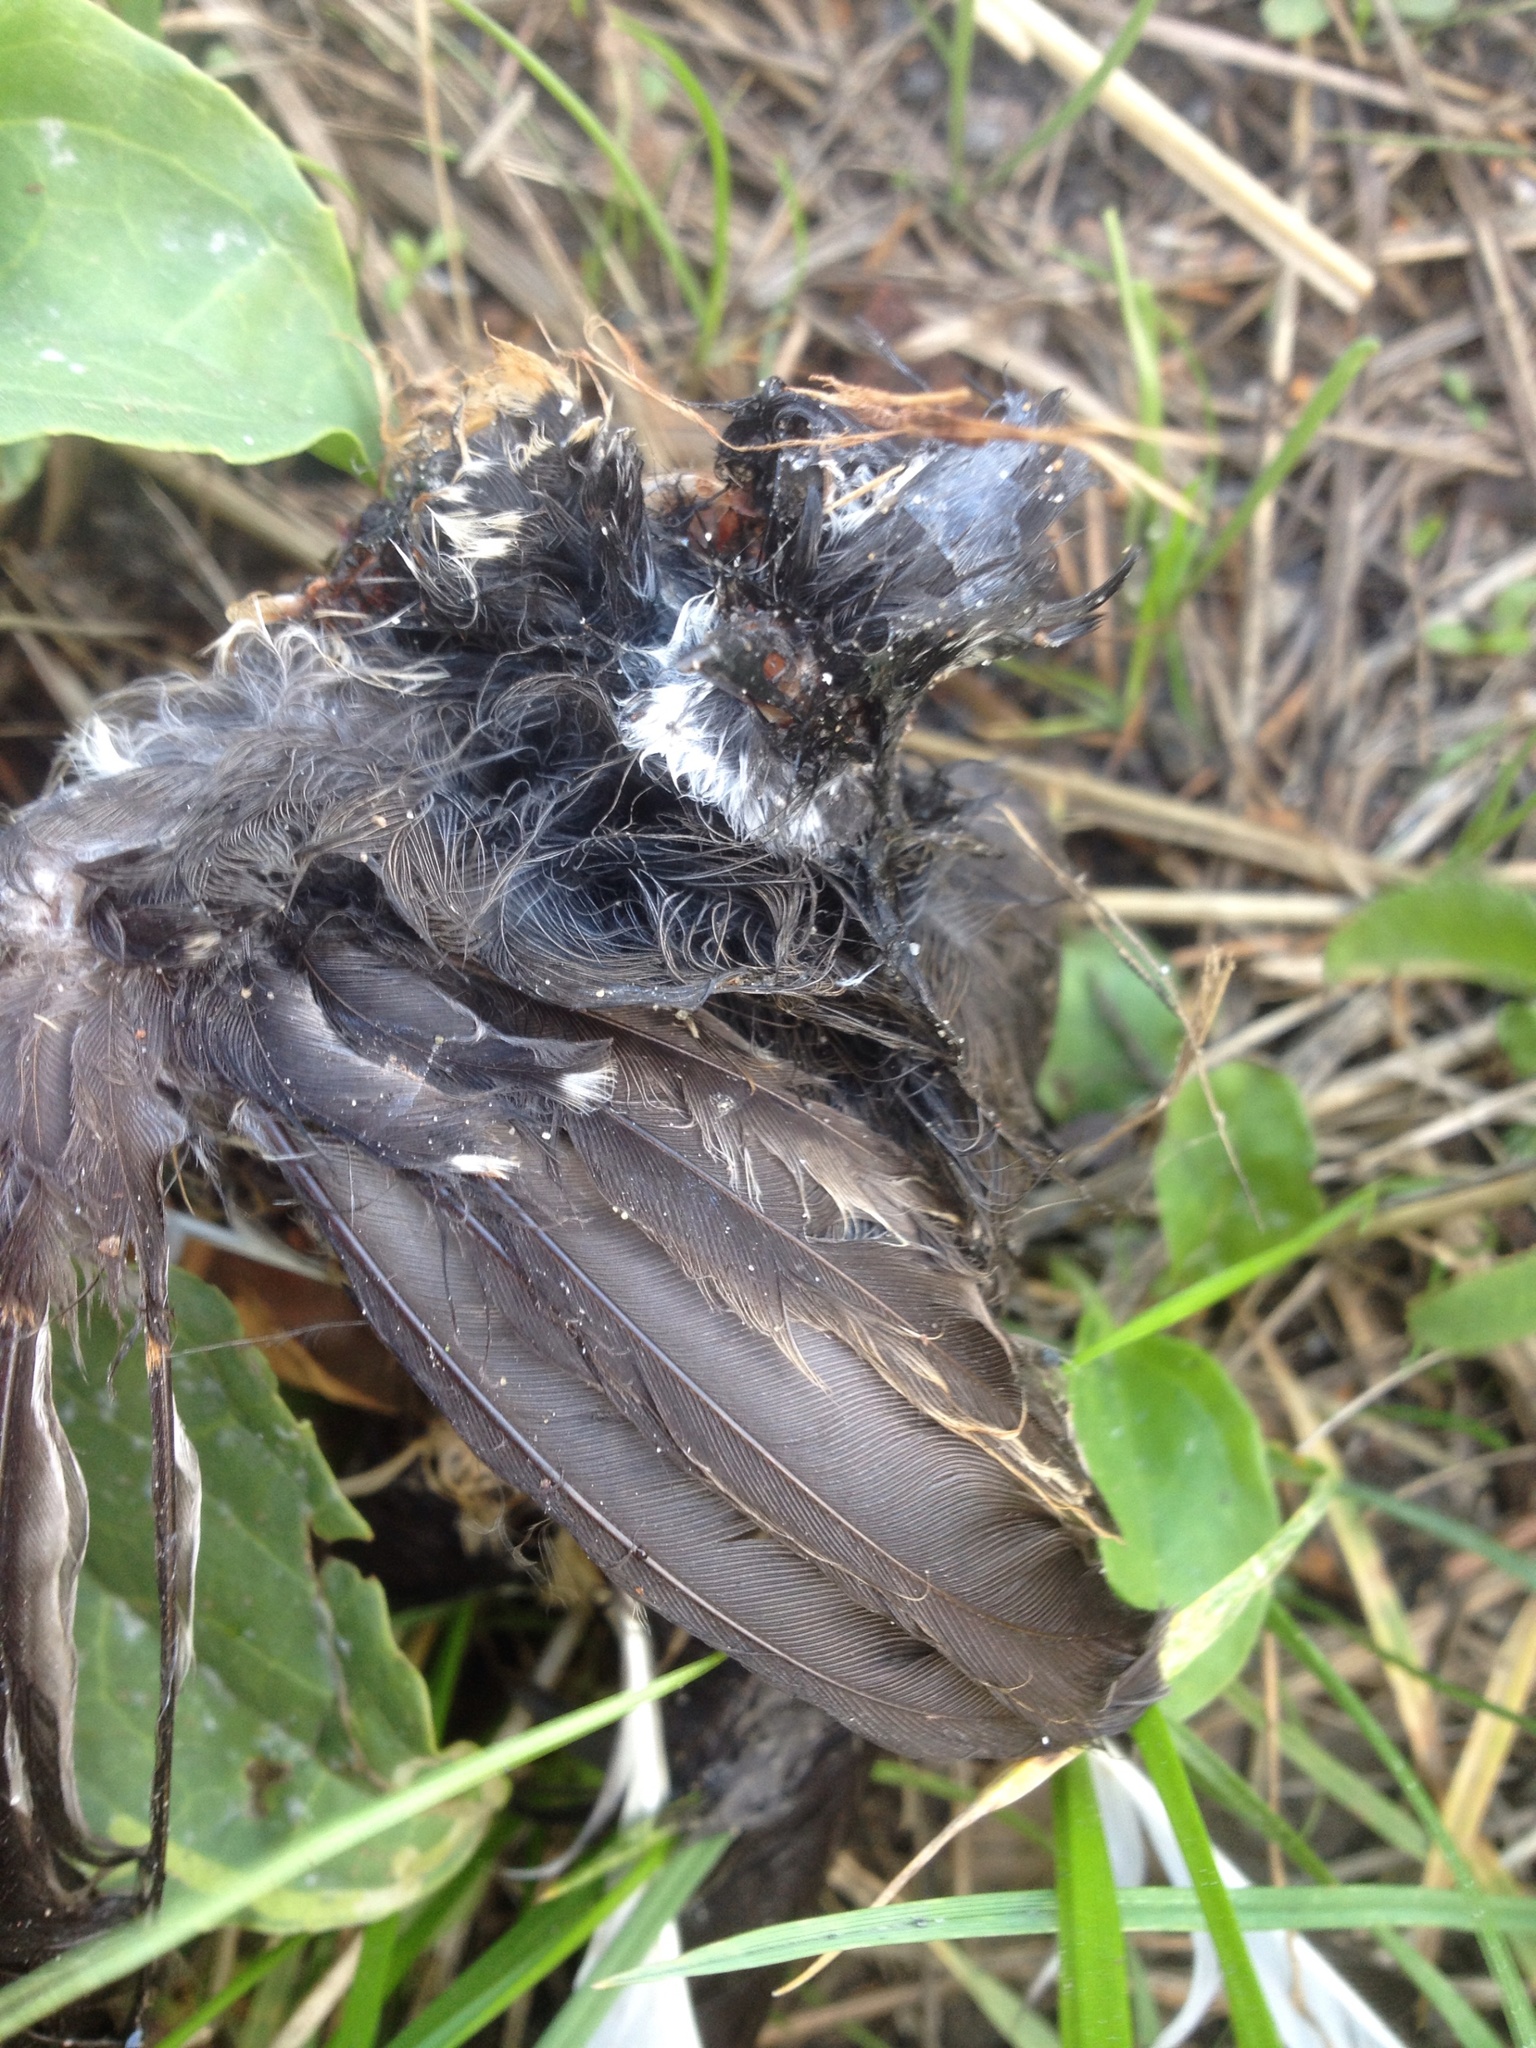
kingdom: Animalia
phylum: Chordata
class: Aves
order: Passeriformes
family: Rhipiduridae
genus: Rhipidura
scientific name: Rhipidura fuliginosa
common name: New zealand fantail
